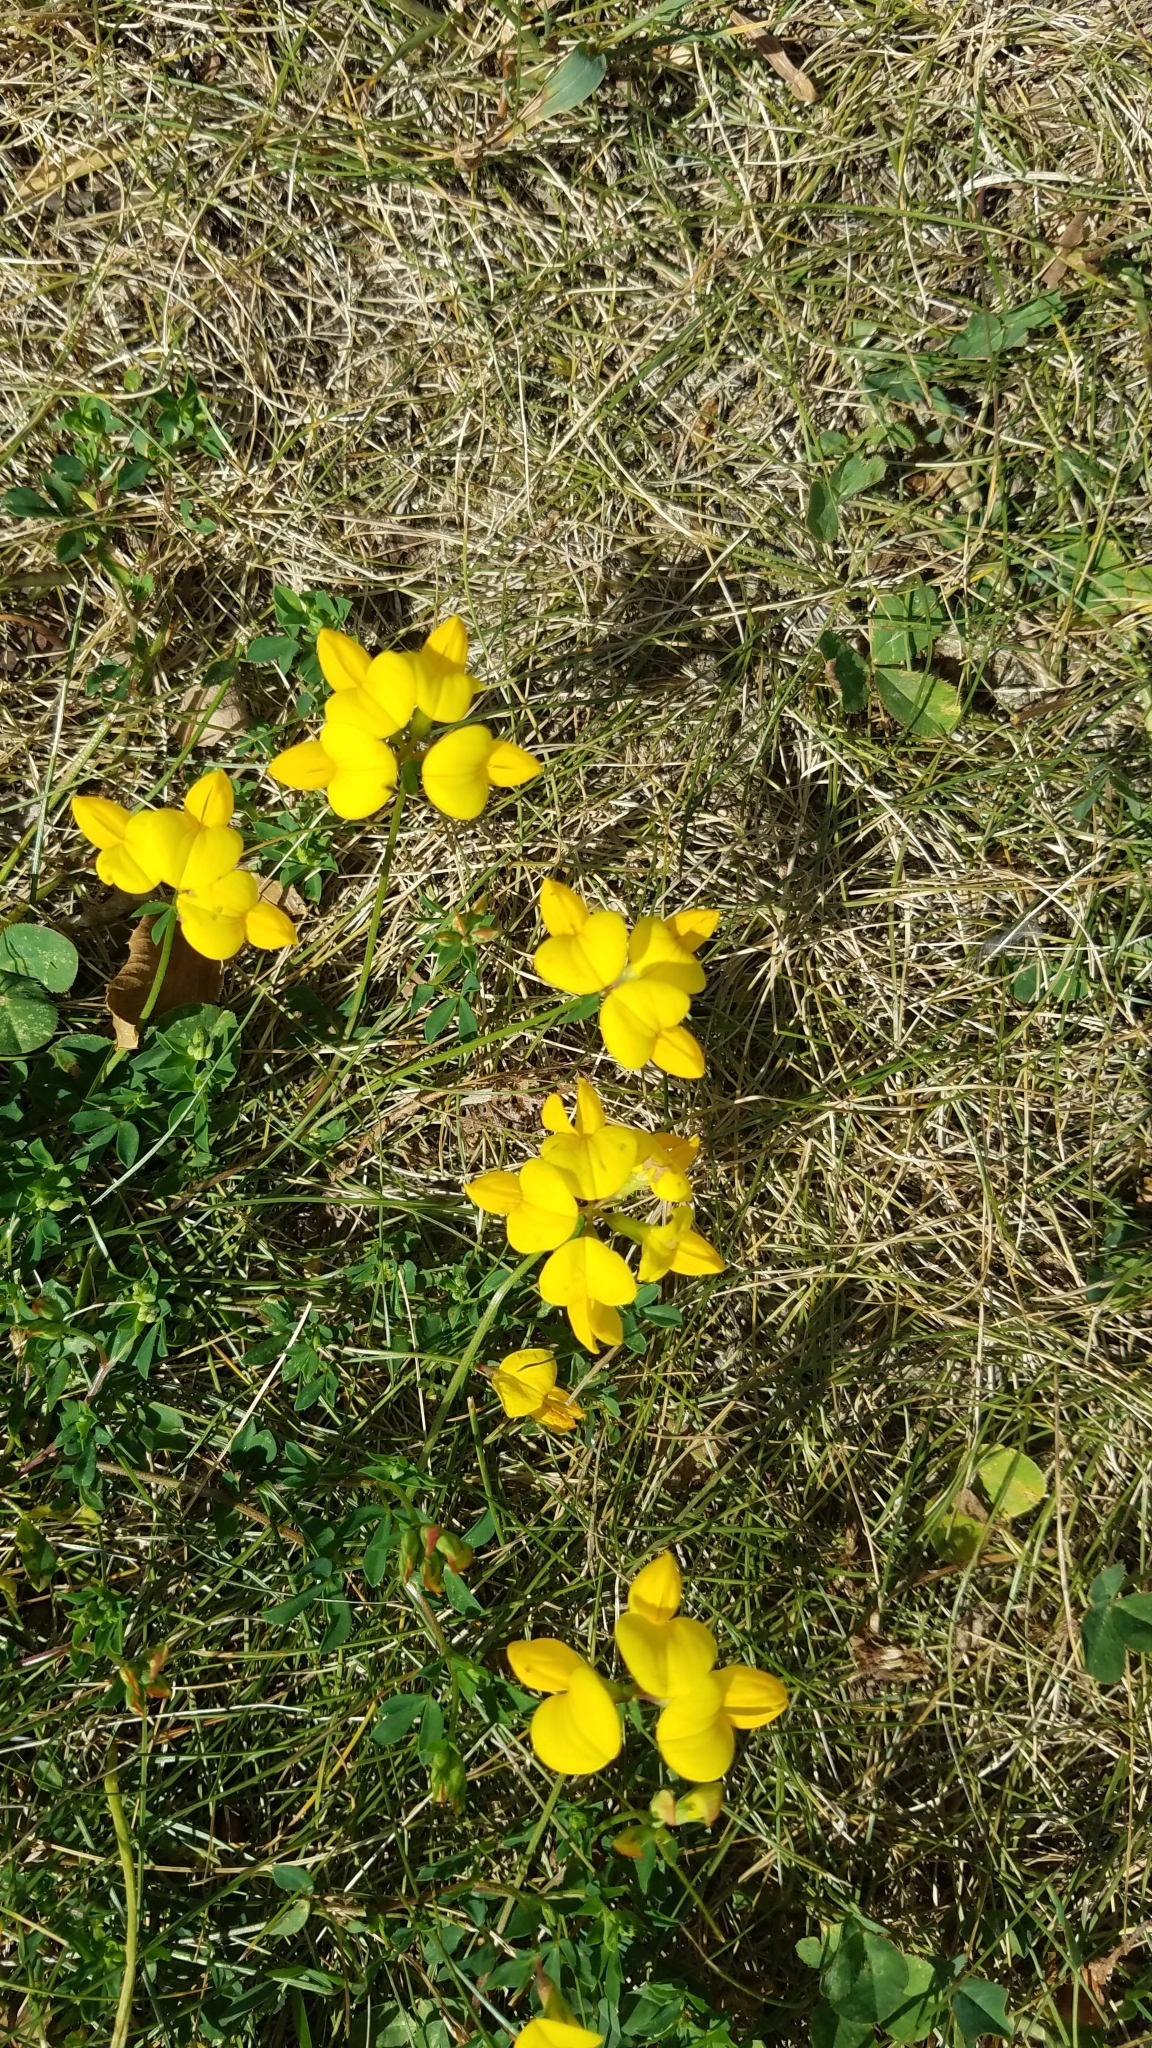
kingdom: Plantae
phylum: Tracheophyta
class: Magnoliopsida
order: Fabales
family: Fabaceae
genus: Lotus
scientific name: Lotus corniculatus
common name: Common bird's-foot-trefoil
